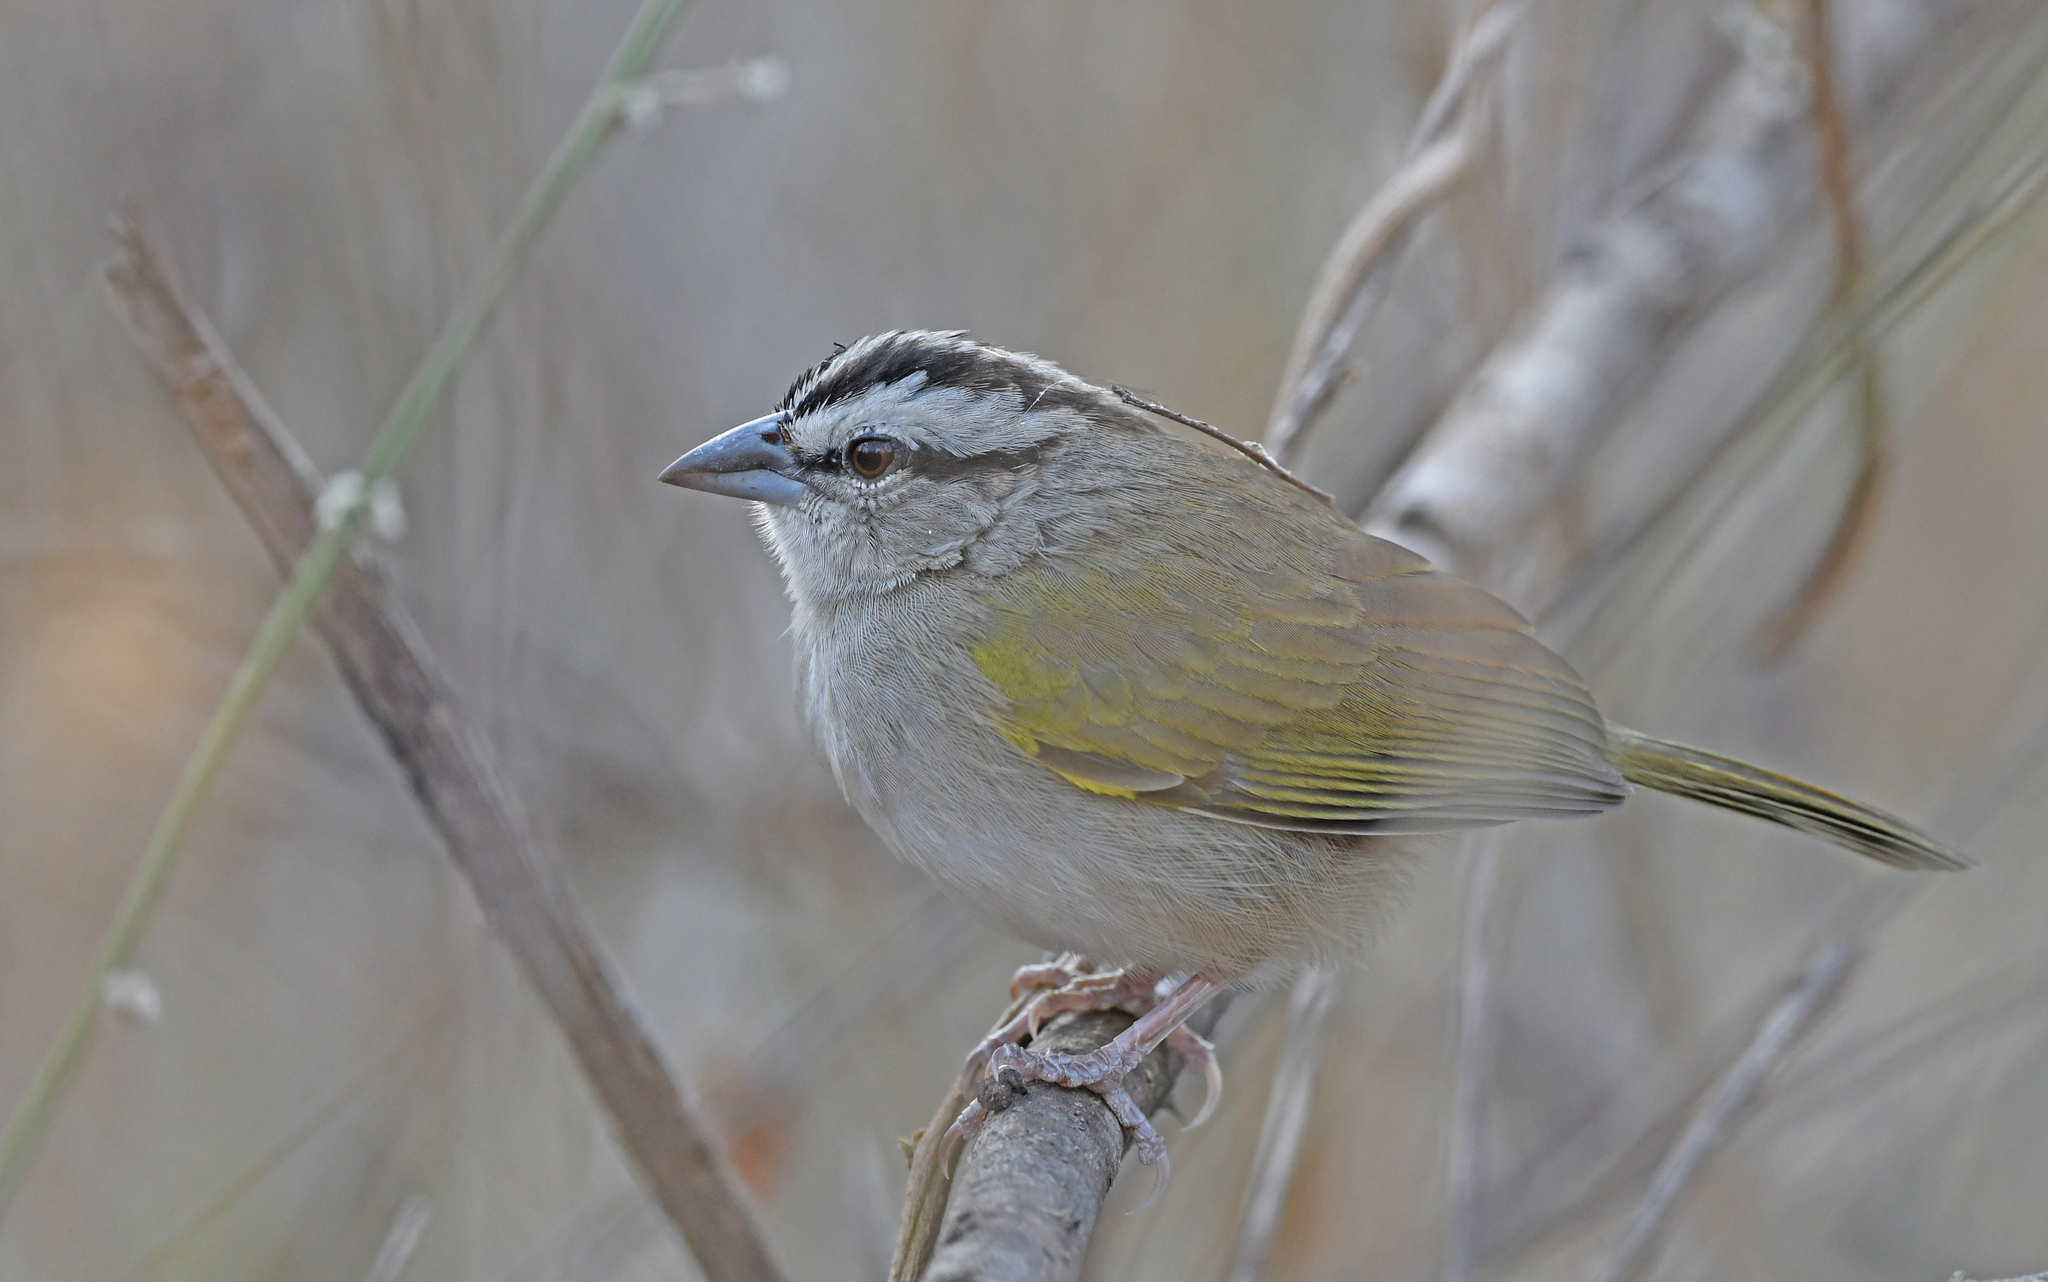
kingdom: Animalia
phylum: Chordata
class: Aves
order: Passeriformes
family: Passerellidae
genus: Arremonops
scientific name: Arremonops tocuyensis
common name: Tocuyo sparrow
